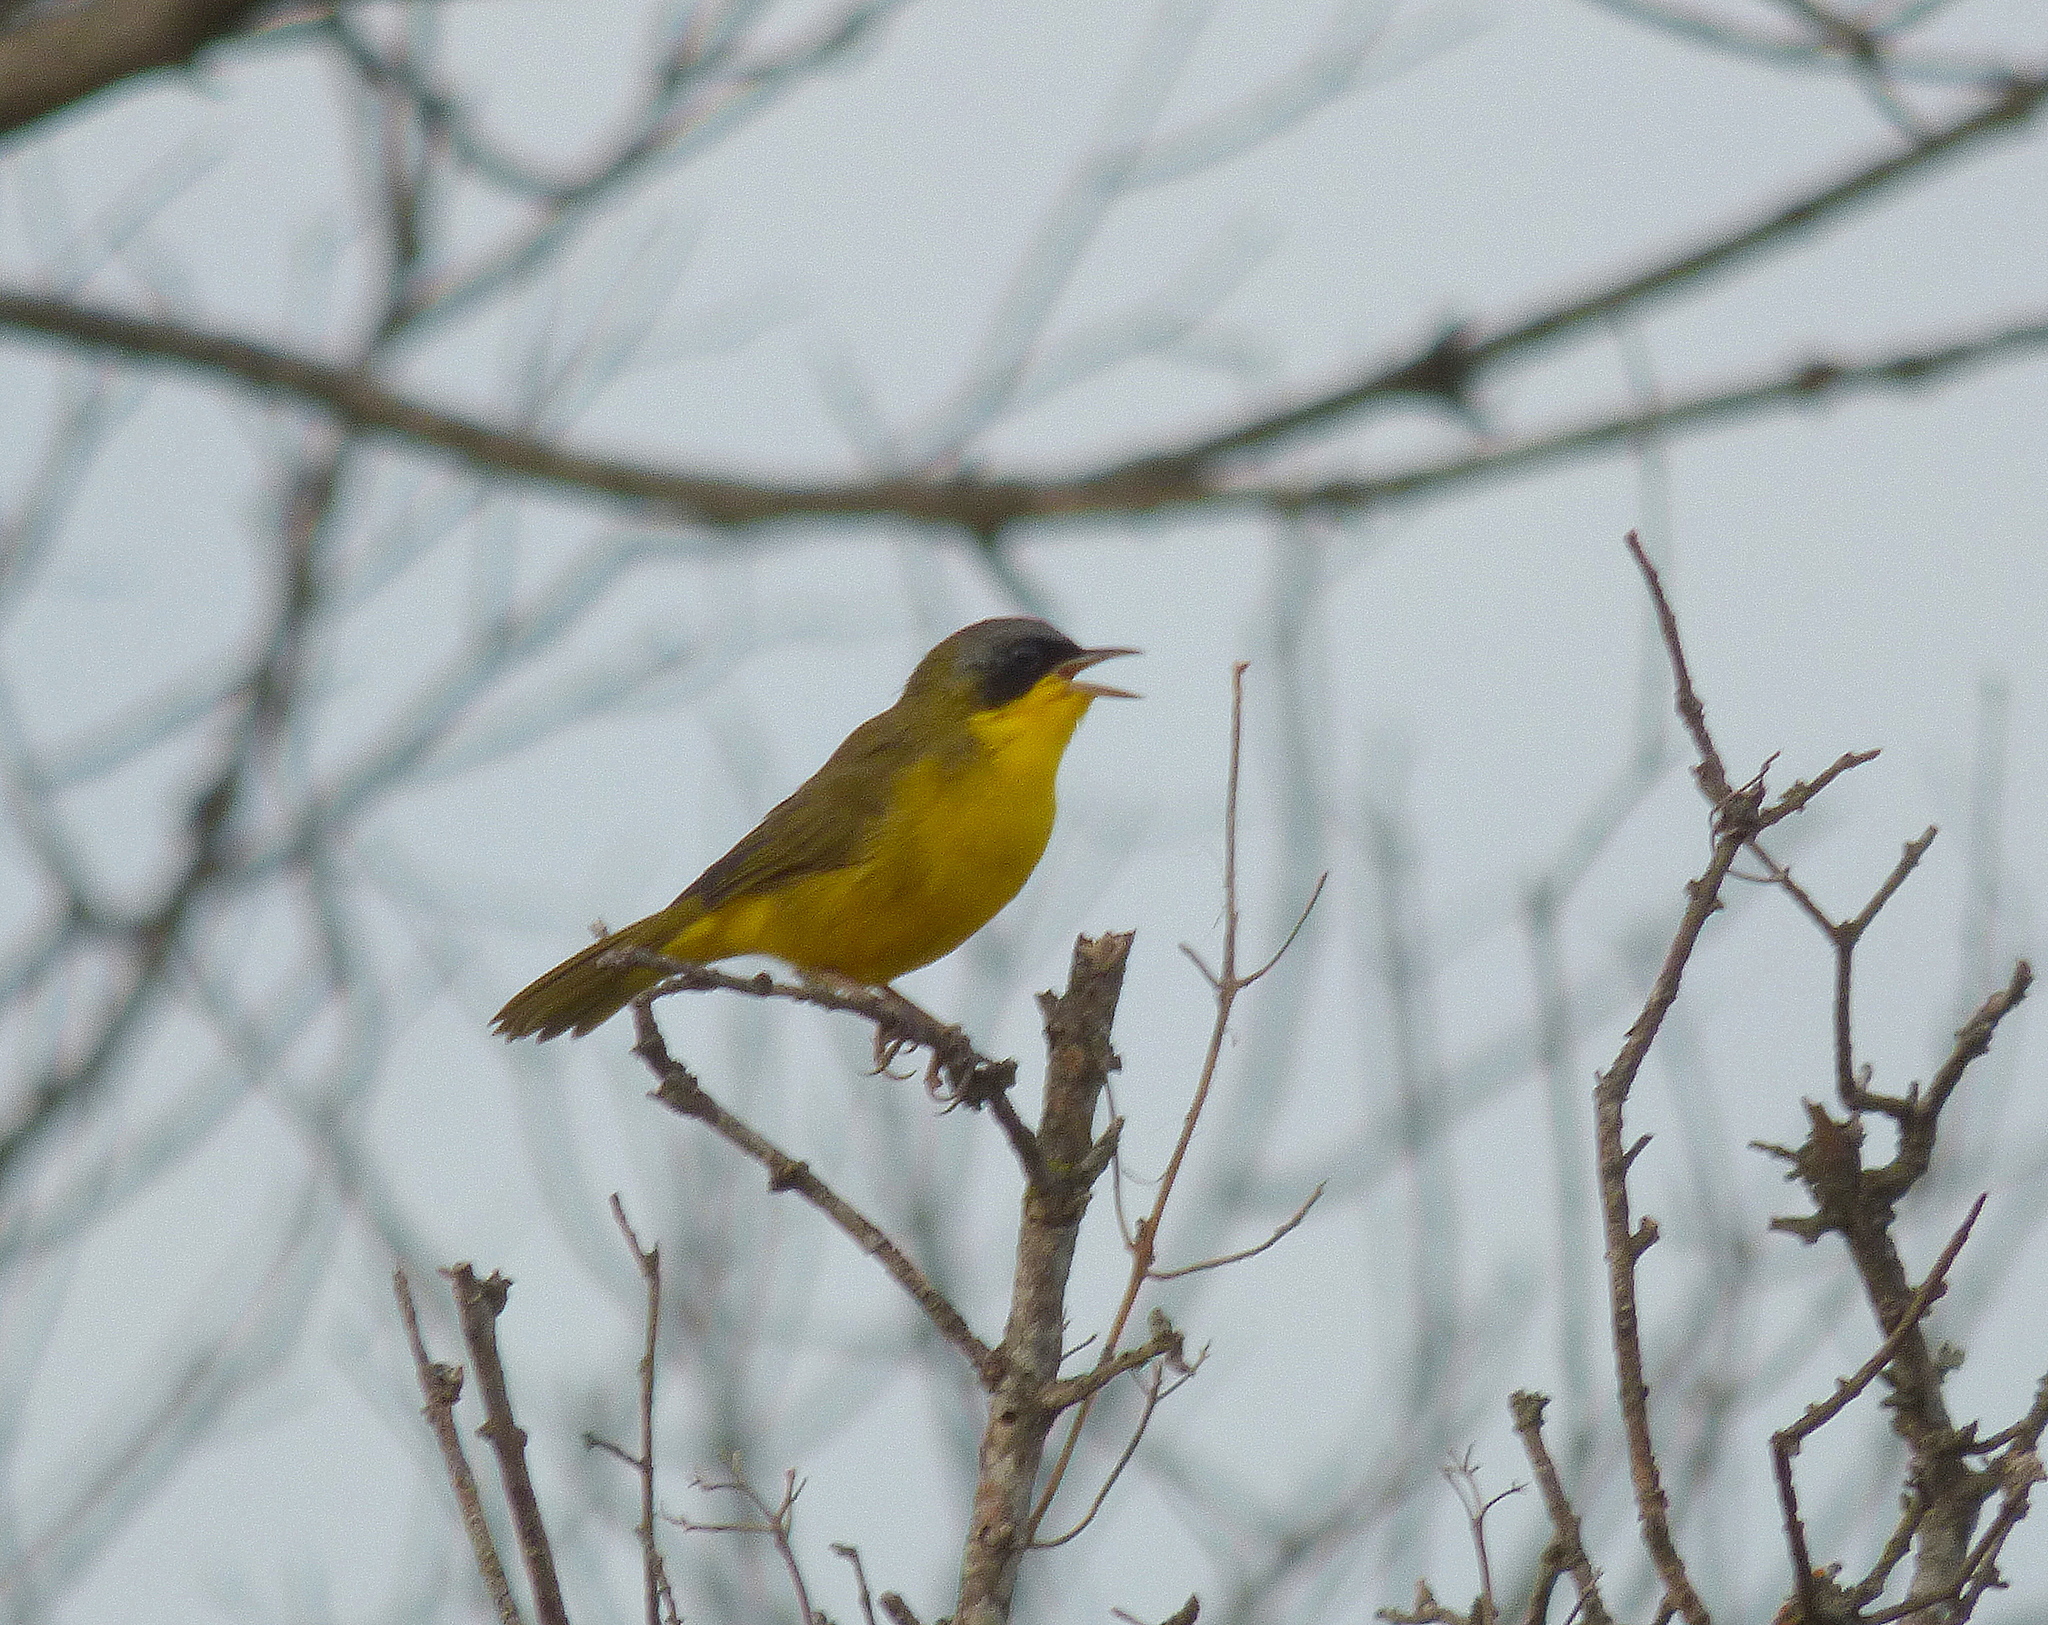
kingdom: Animalia
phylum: Chordata
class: Aves
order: Passeriformes
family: Parulidae
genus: Geothlypis
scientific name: Geothlypis velata
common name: Southern yellowthroat
